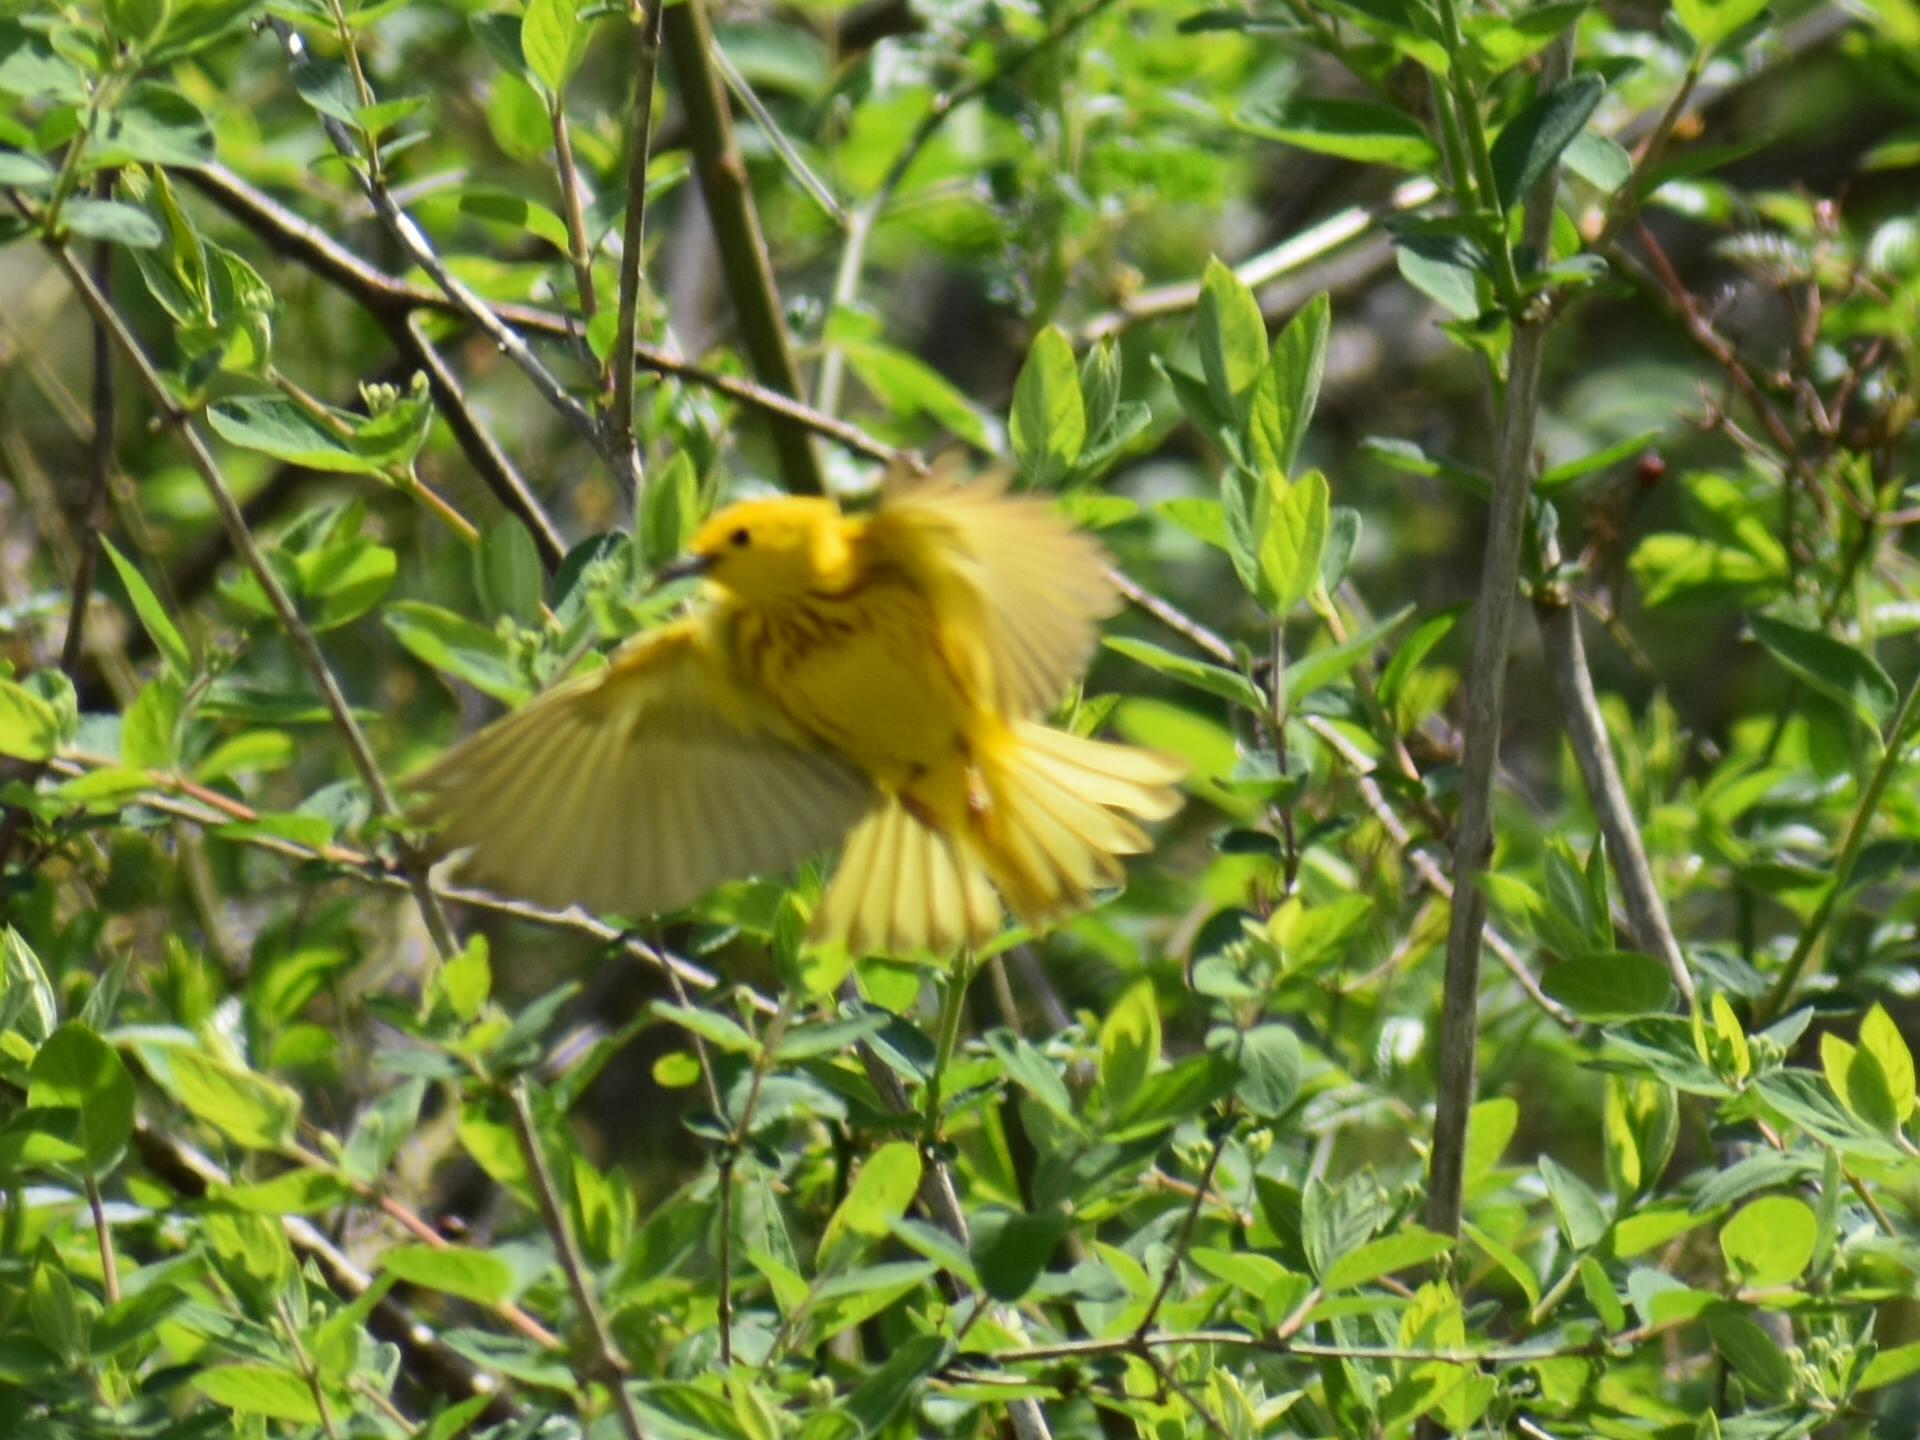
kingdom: Animalia
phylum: Chordata
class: Aves
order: Passeriformes
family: Parulidae
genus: Setophaga
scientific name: Setophaga petechia
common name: Yellow warbler
